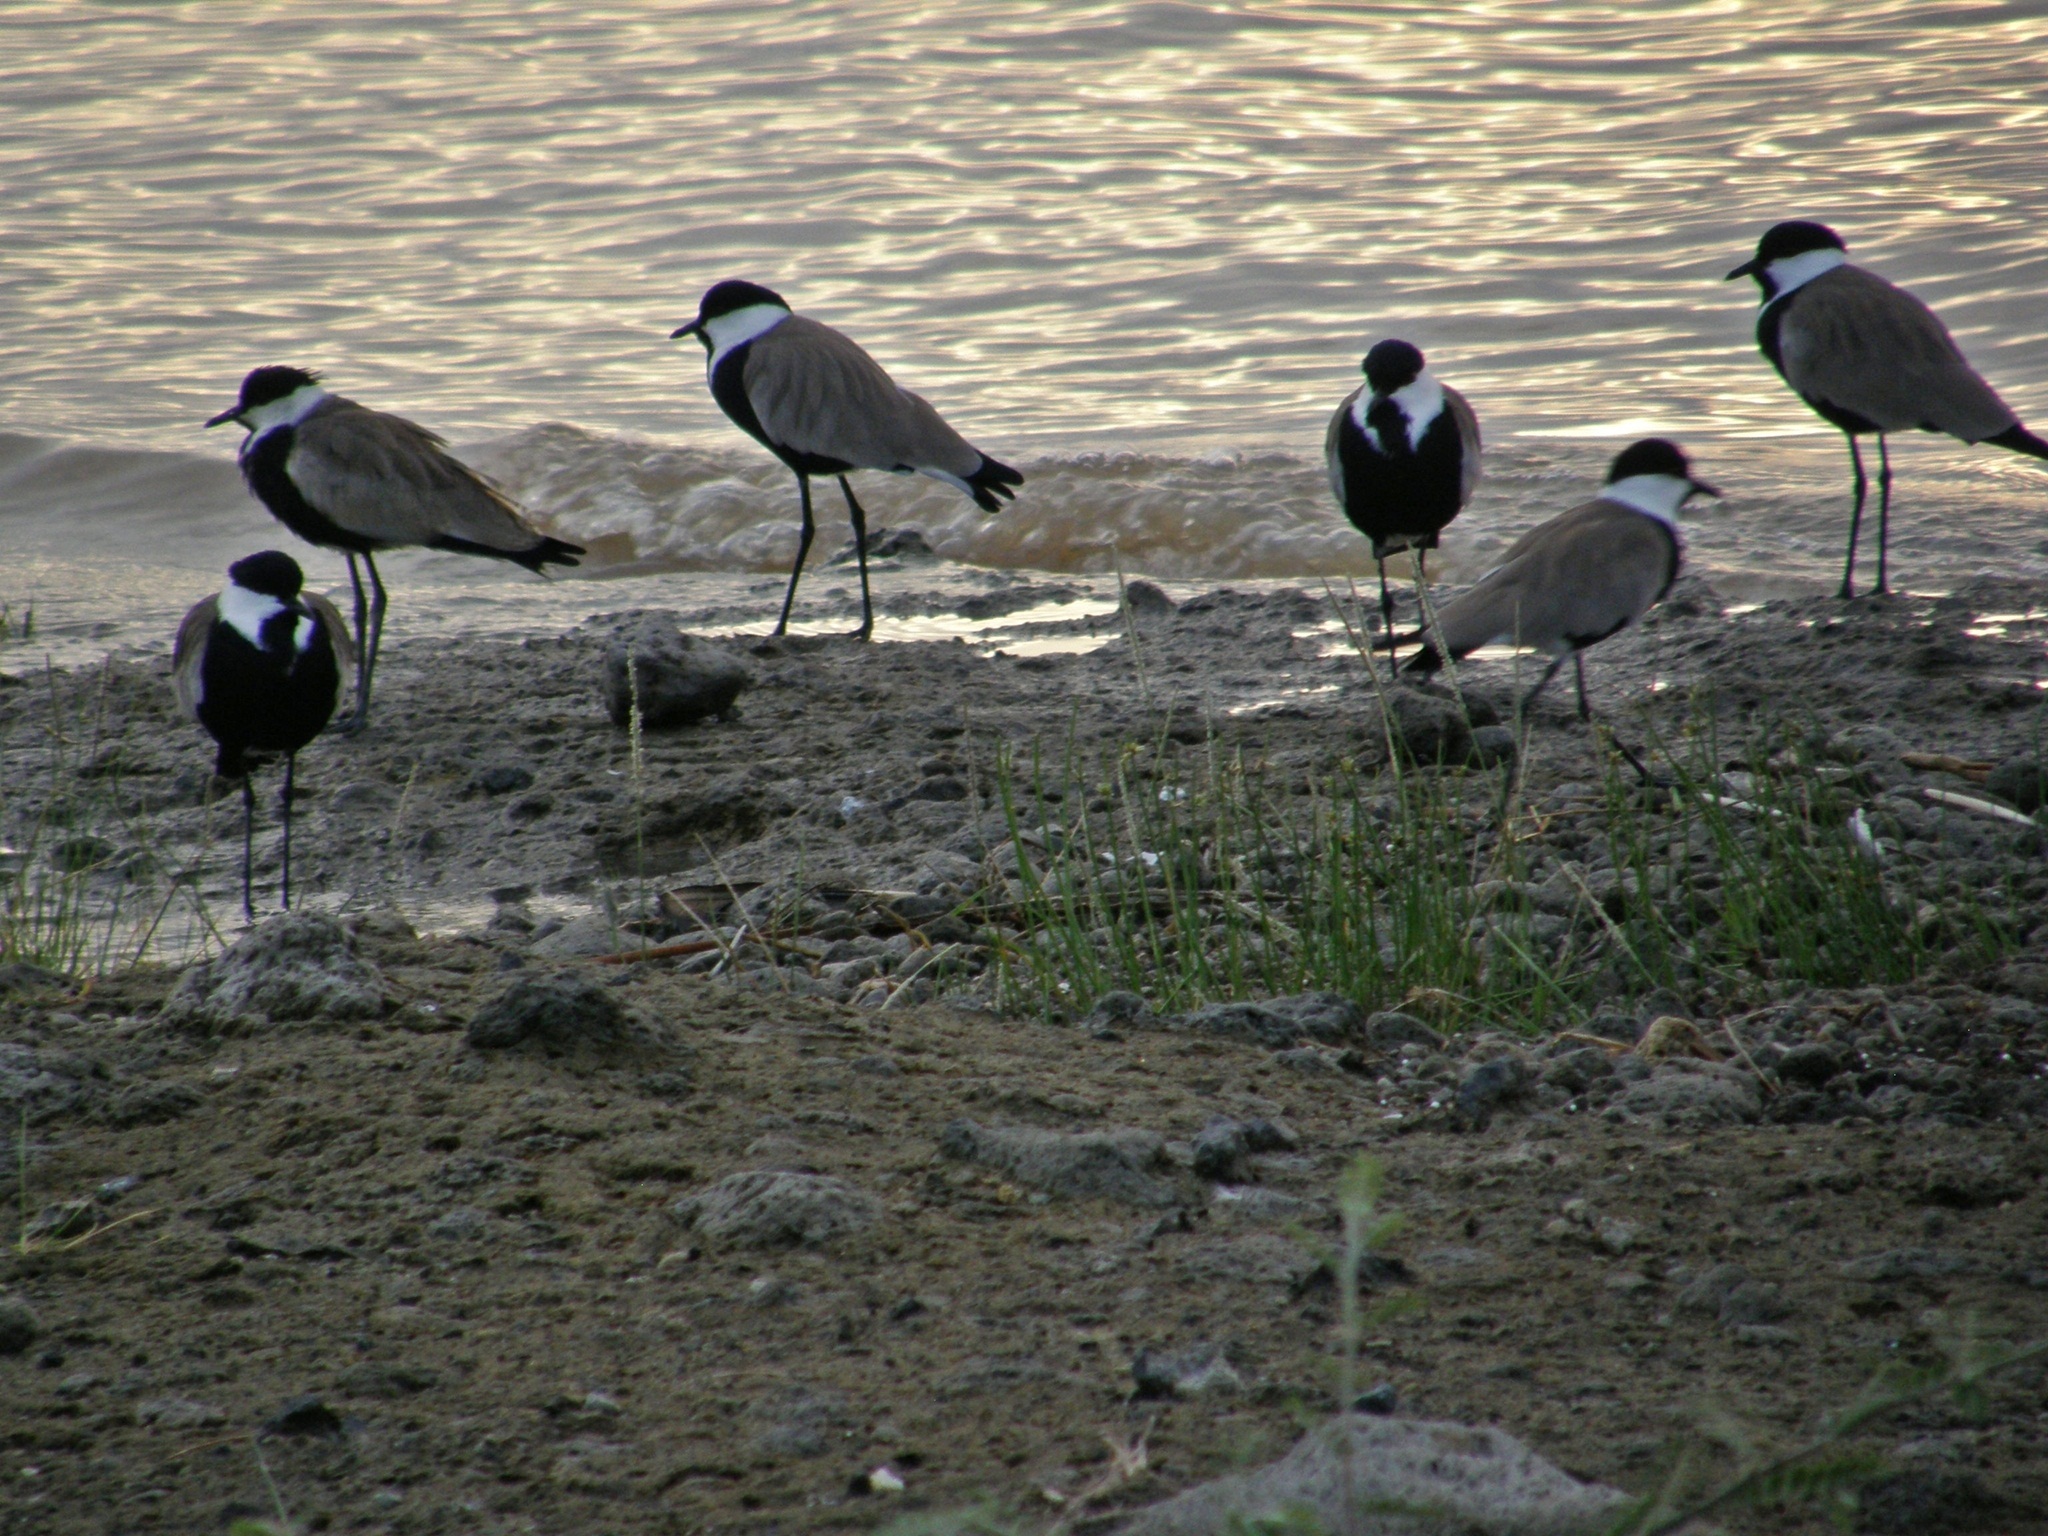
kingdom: Animalia
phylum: Chordata
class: Aves
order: Charadriiformes
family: Charadriidae
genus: Vanellus
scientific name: Vanellus spinosus
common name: Spur-winged lapwing
